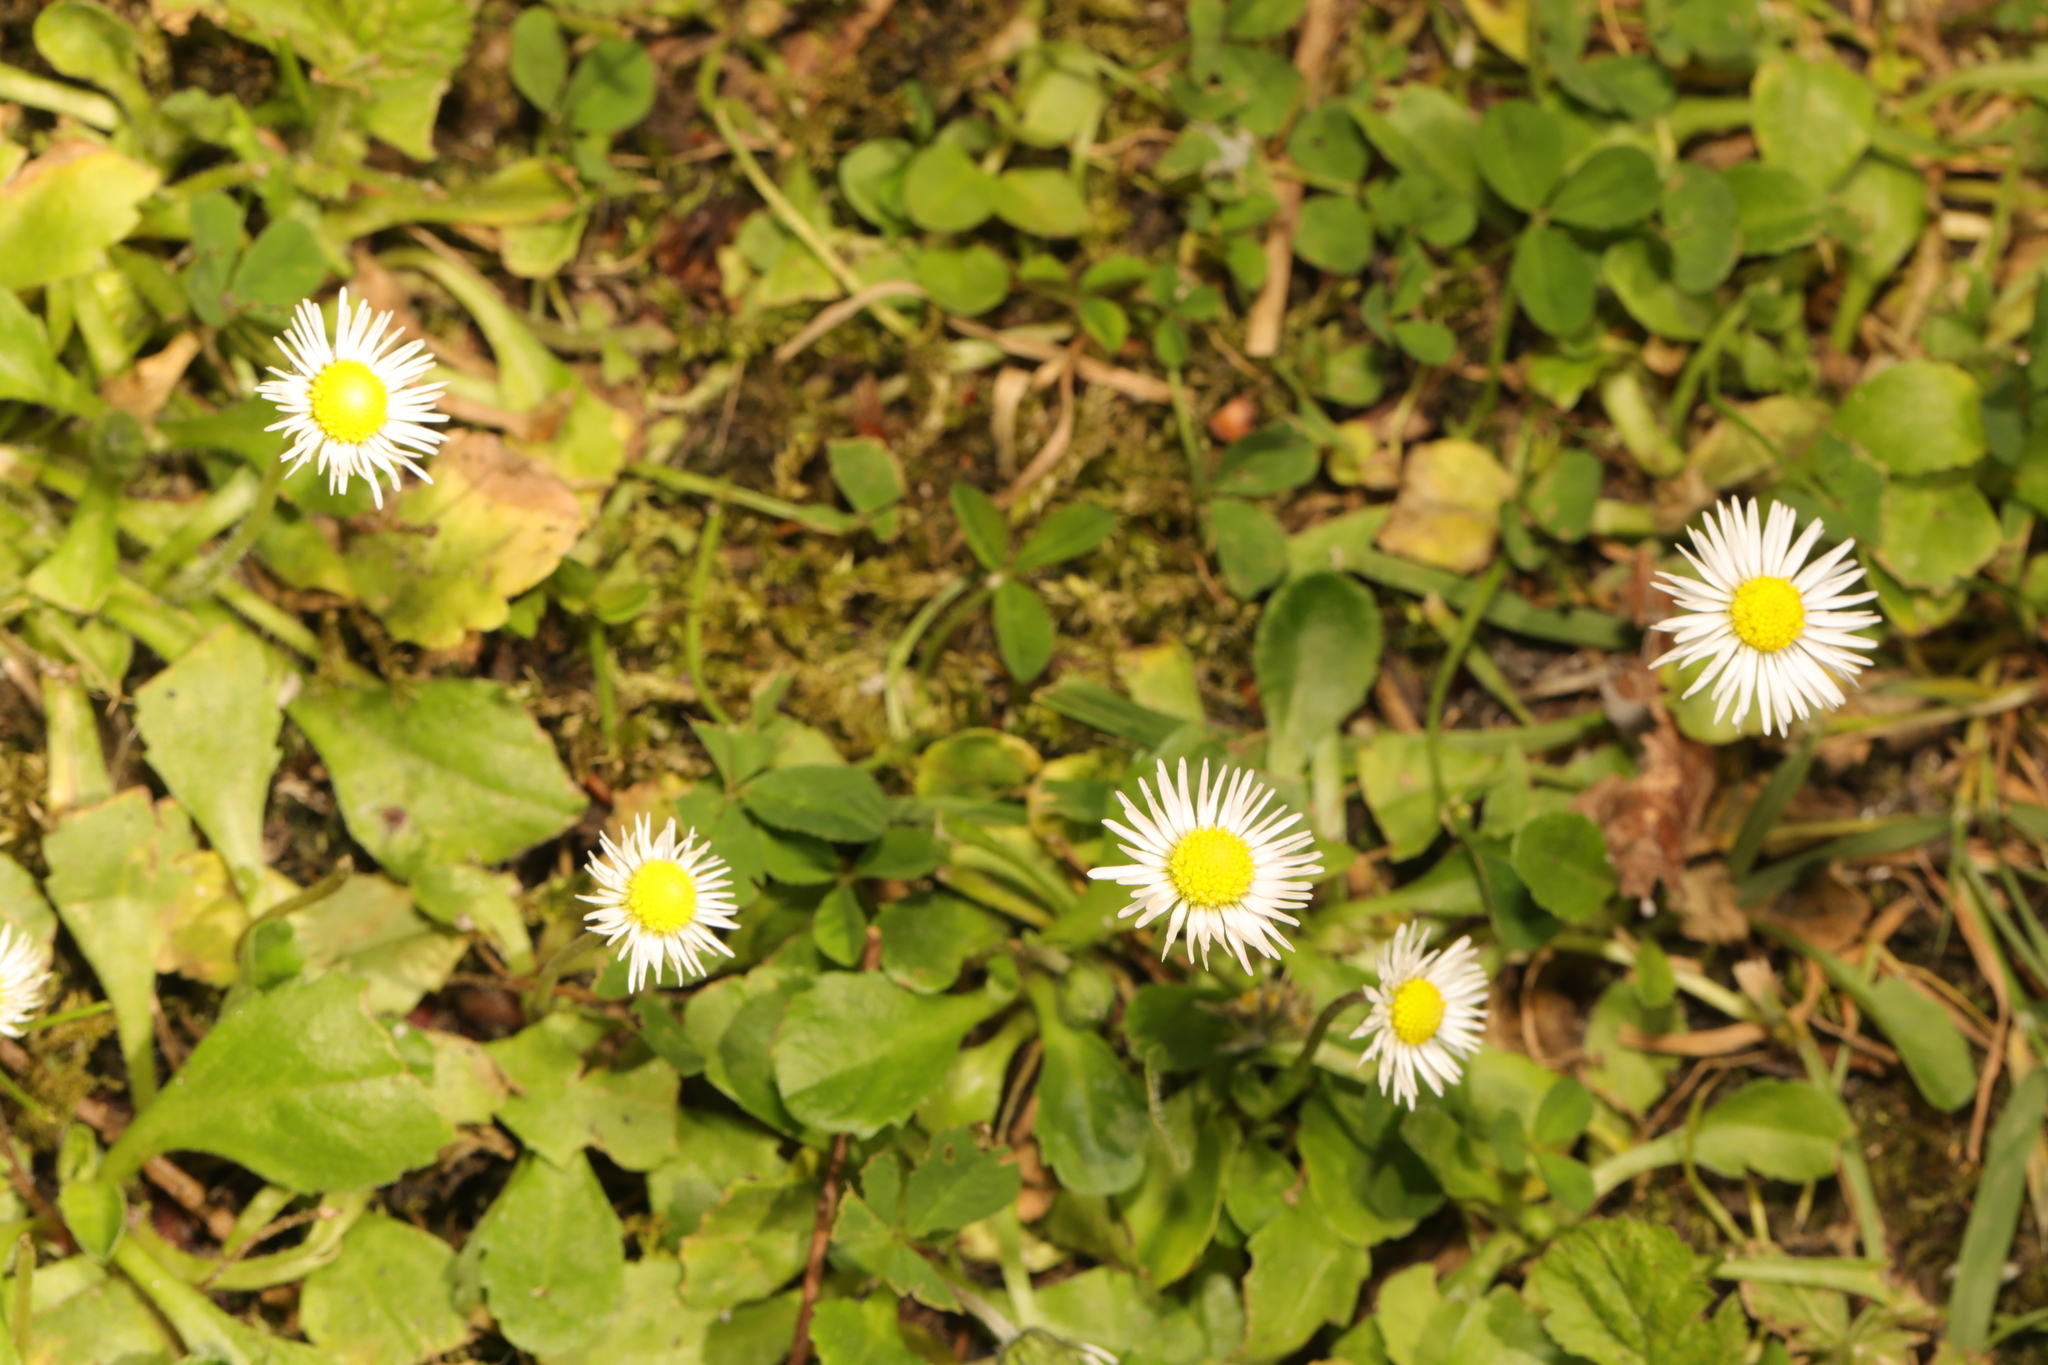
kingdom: Plantae
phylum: Tracheophyta
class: Magnoliopsida
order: Asterales
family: Asteraceae
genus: Bellis
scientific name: Bellis perennis
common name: Lawndaisy
